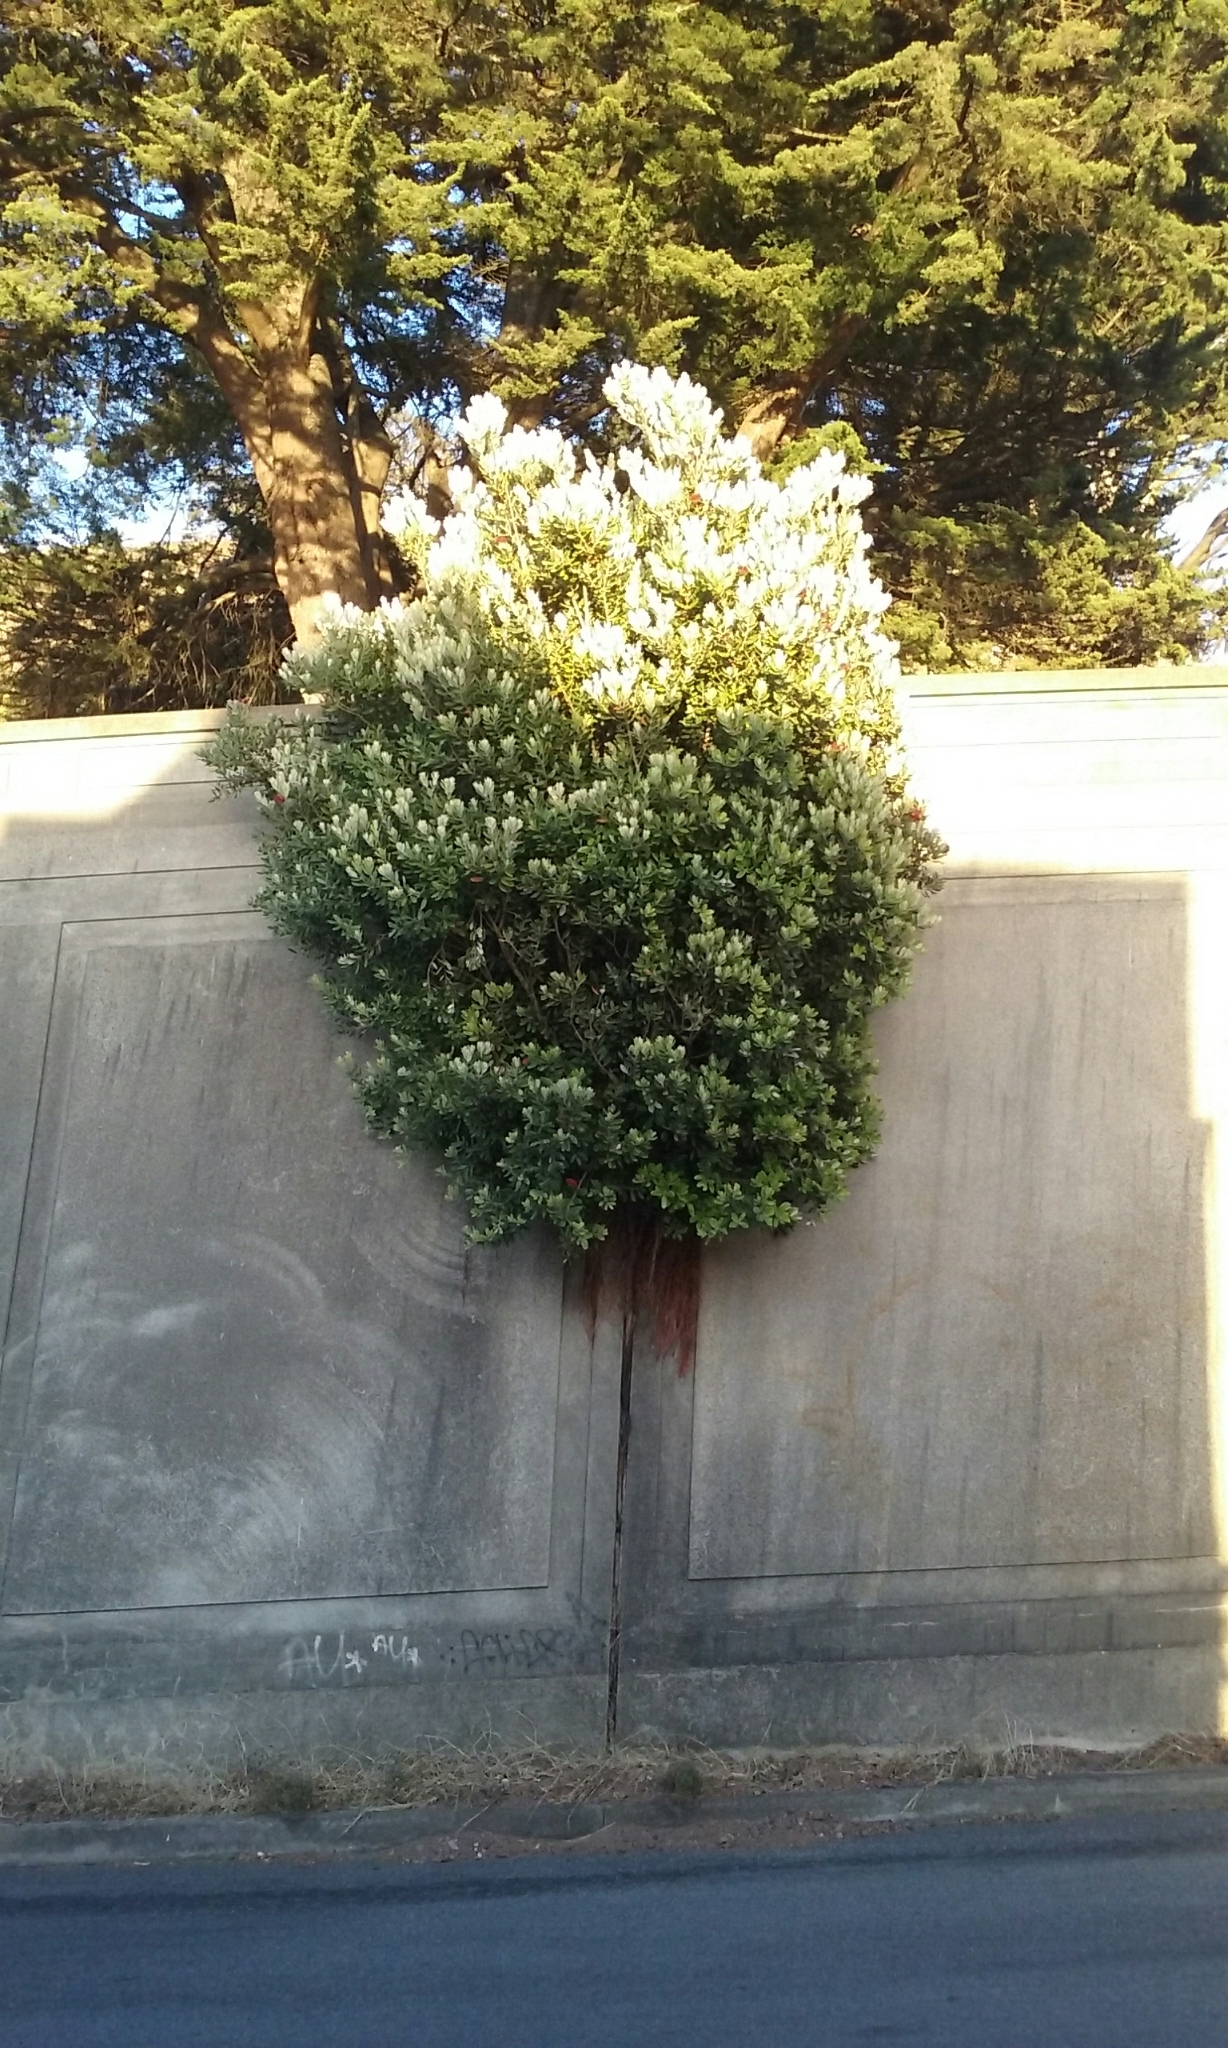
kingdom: Plantae
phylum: Tracheophyta
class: Magnoliopsida
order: Myrtales
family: Myrtaceae
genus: Metrosideros
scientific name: Metrosideros excelsa
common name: New zealand christmastree
